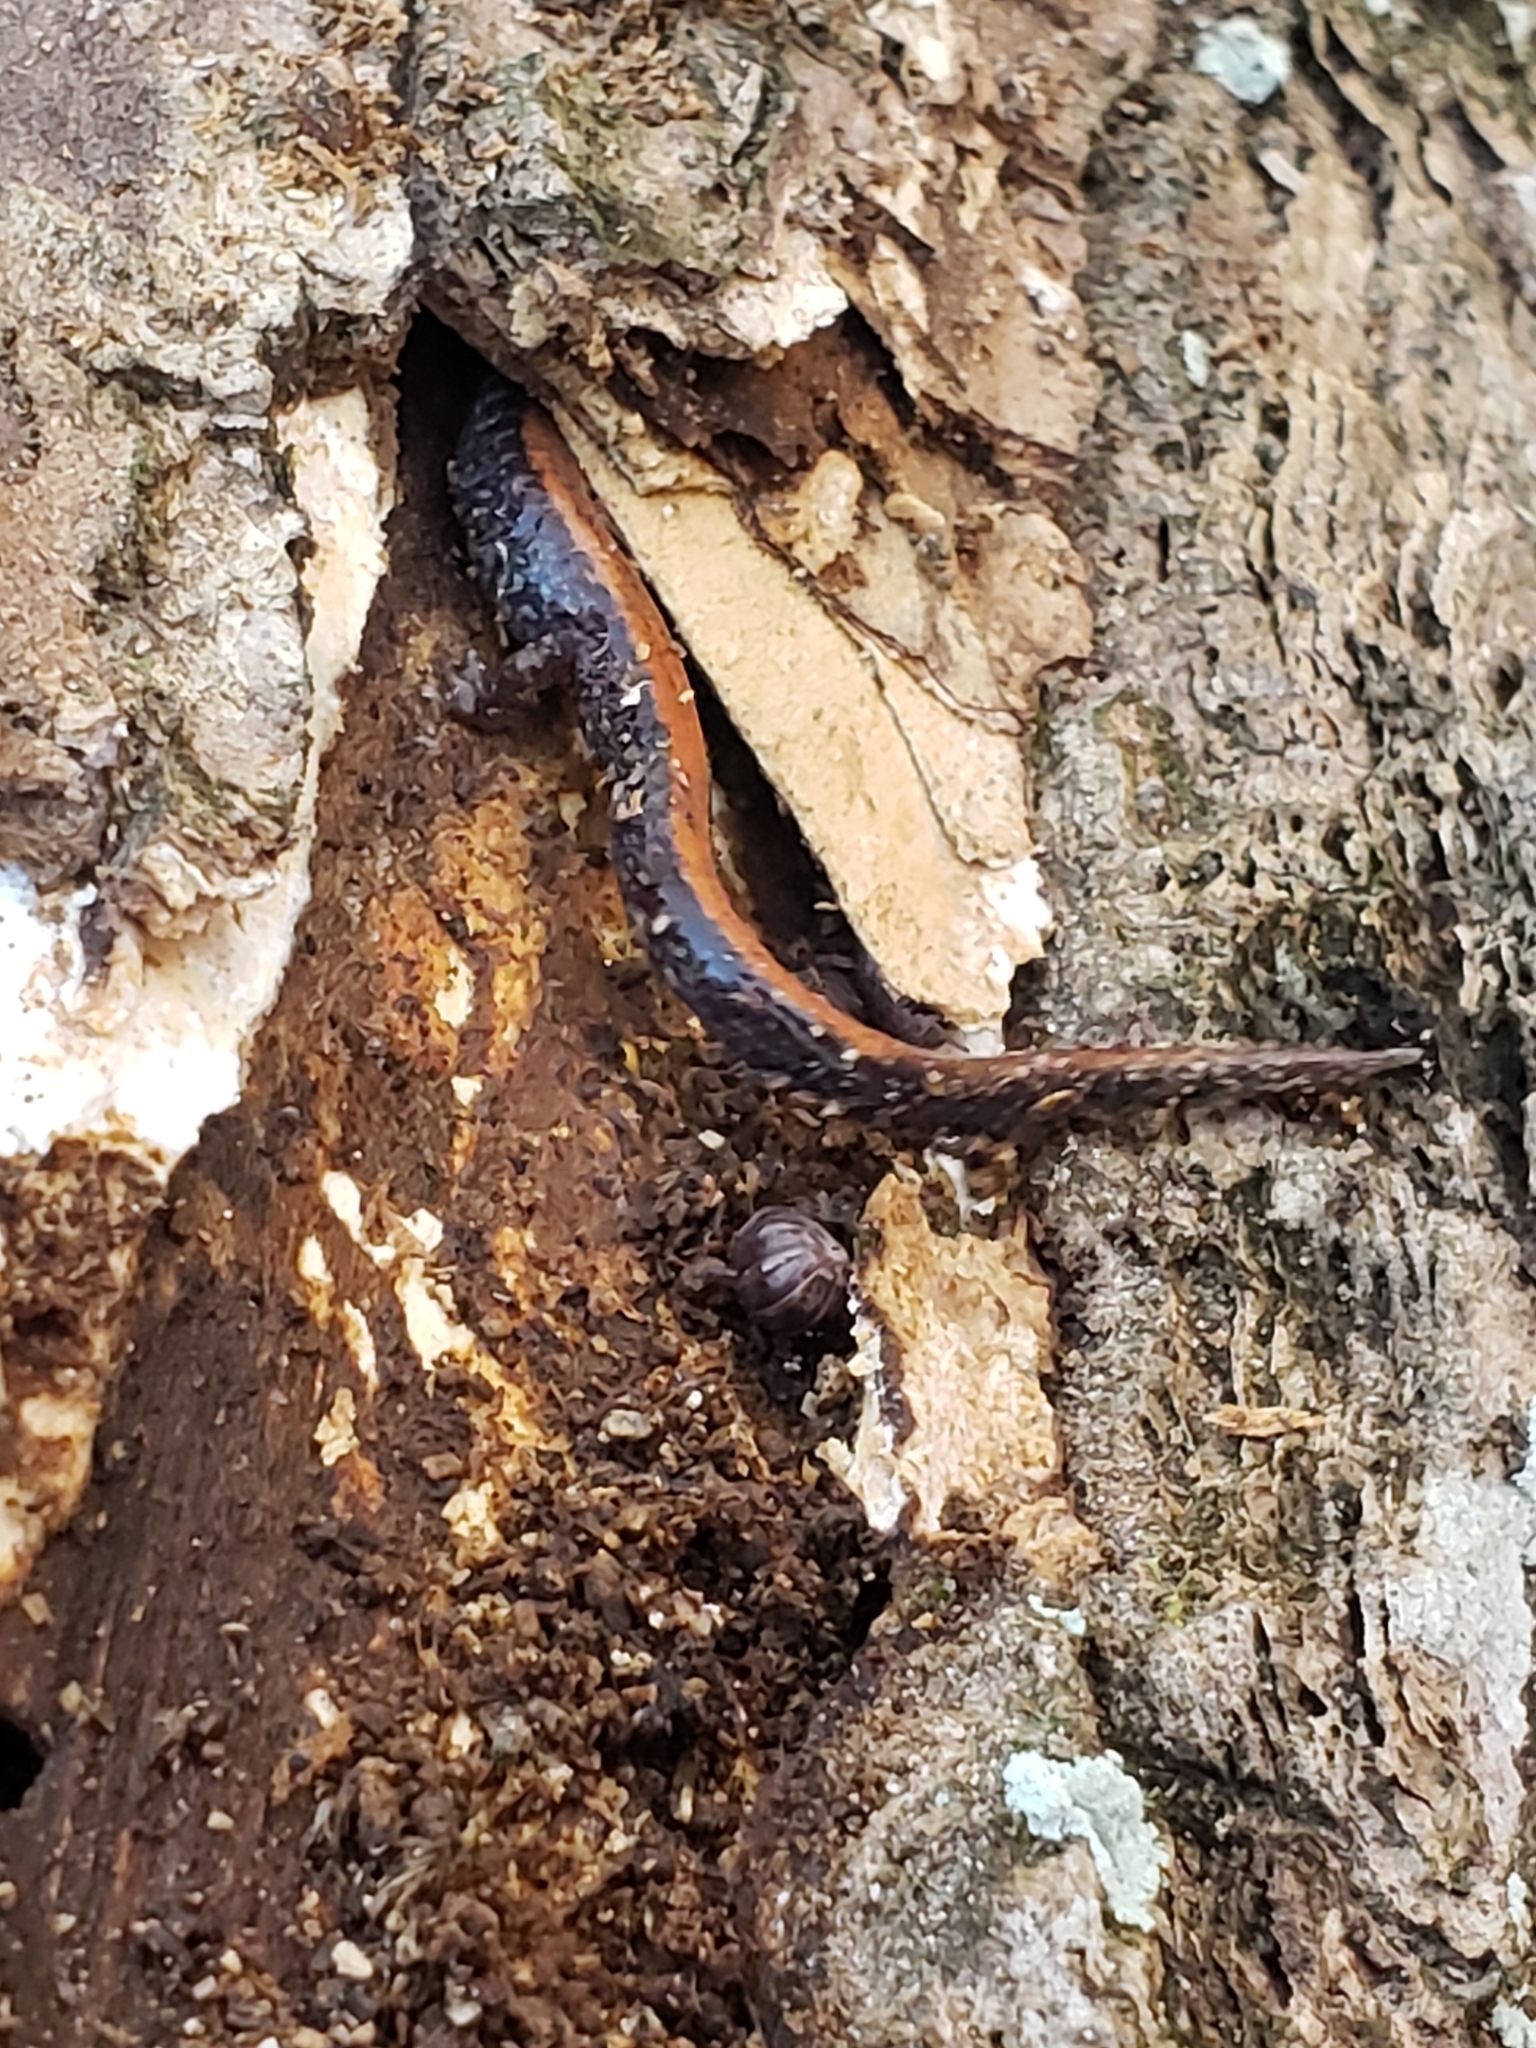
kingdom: Animalia
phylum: Chordata
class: Amphibia
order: Caudata
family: Plethodontidae
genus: Plethodon
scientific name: Plethodon cinereus
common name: Redback salamander
